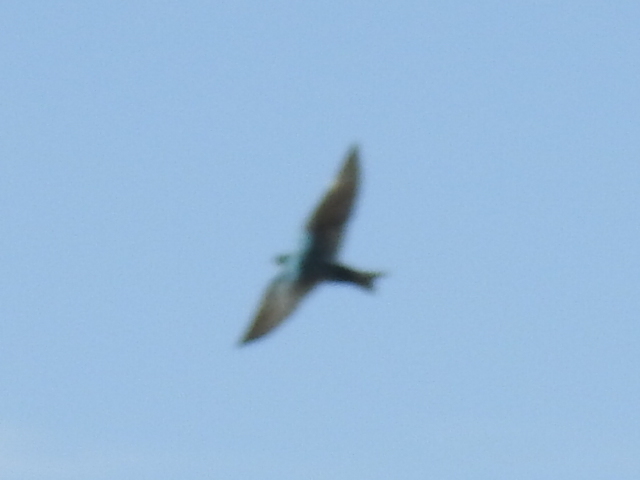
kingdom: Animalia
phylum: Chordata
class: Aves
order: Passeriformes
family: Hirundinidae
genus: Tachycineta
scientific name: Tachycineta bicolor
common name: Tree swallow
